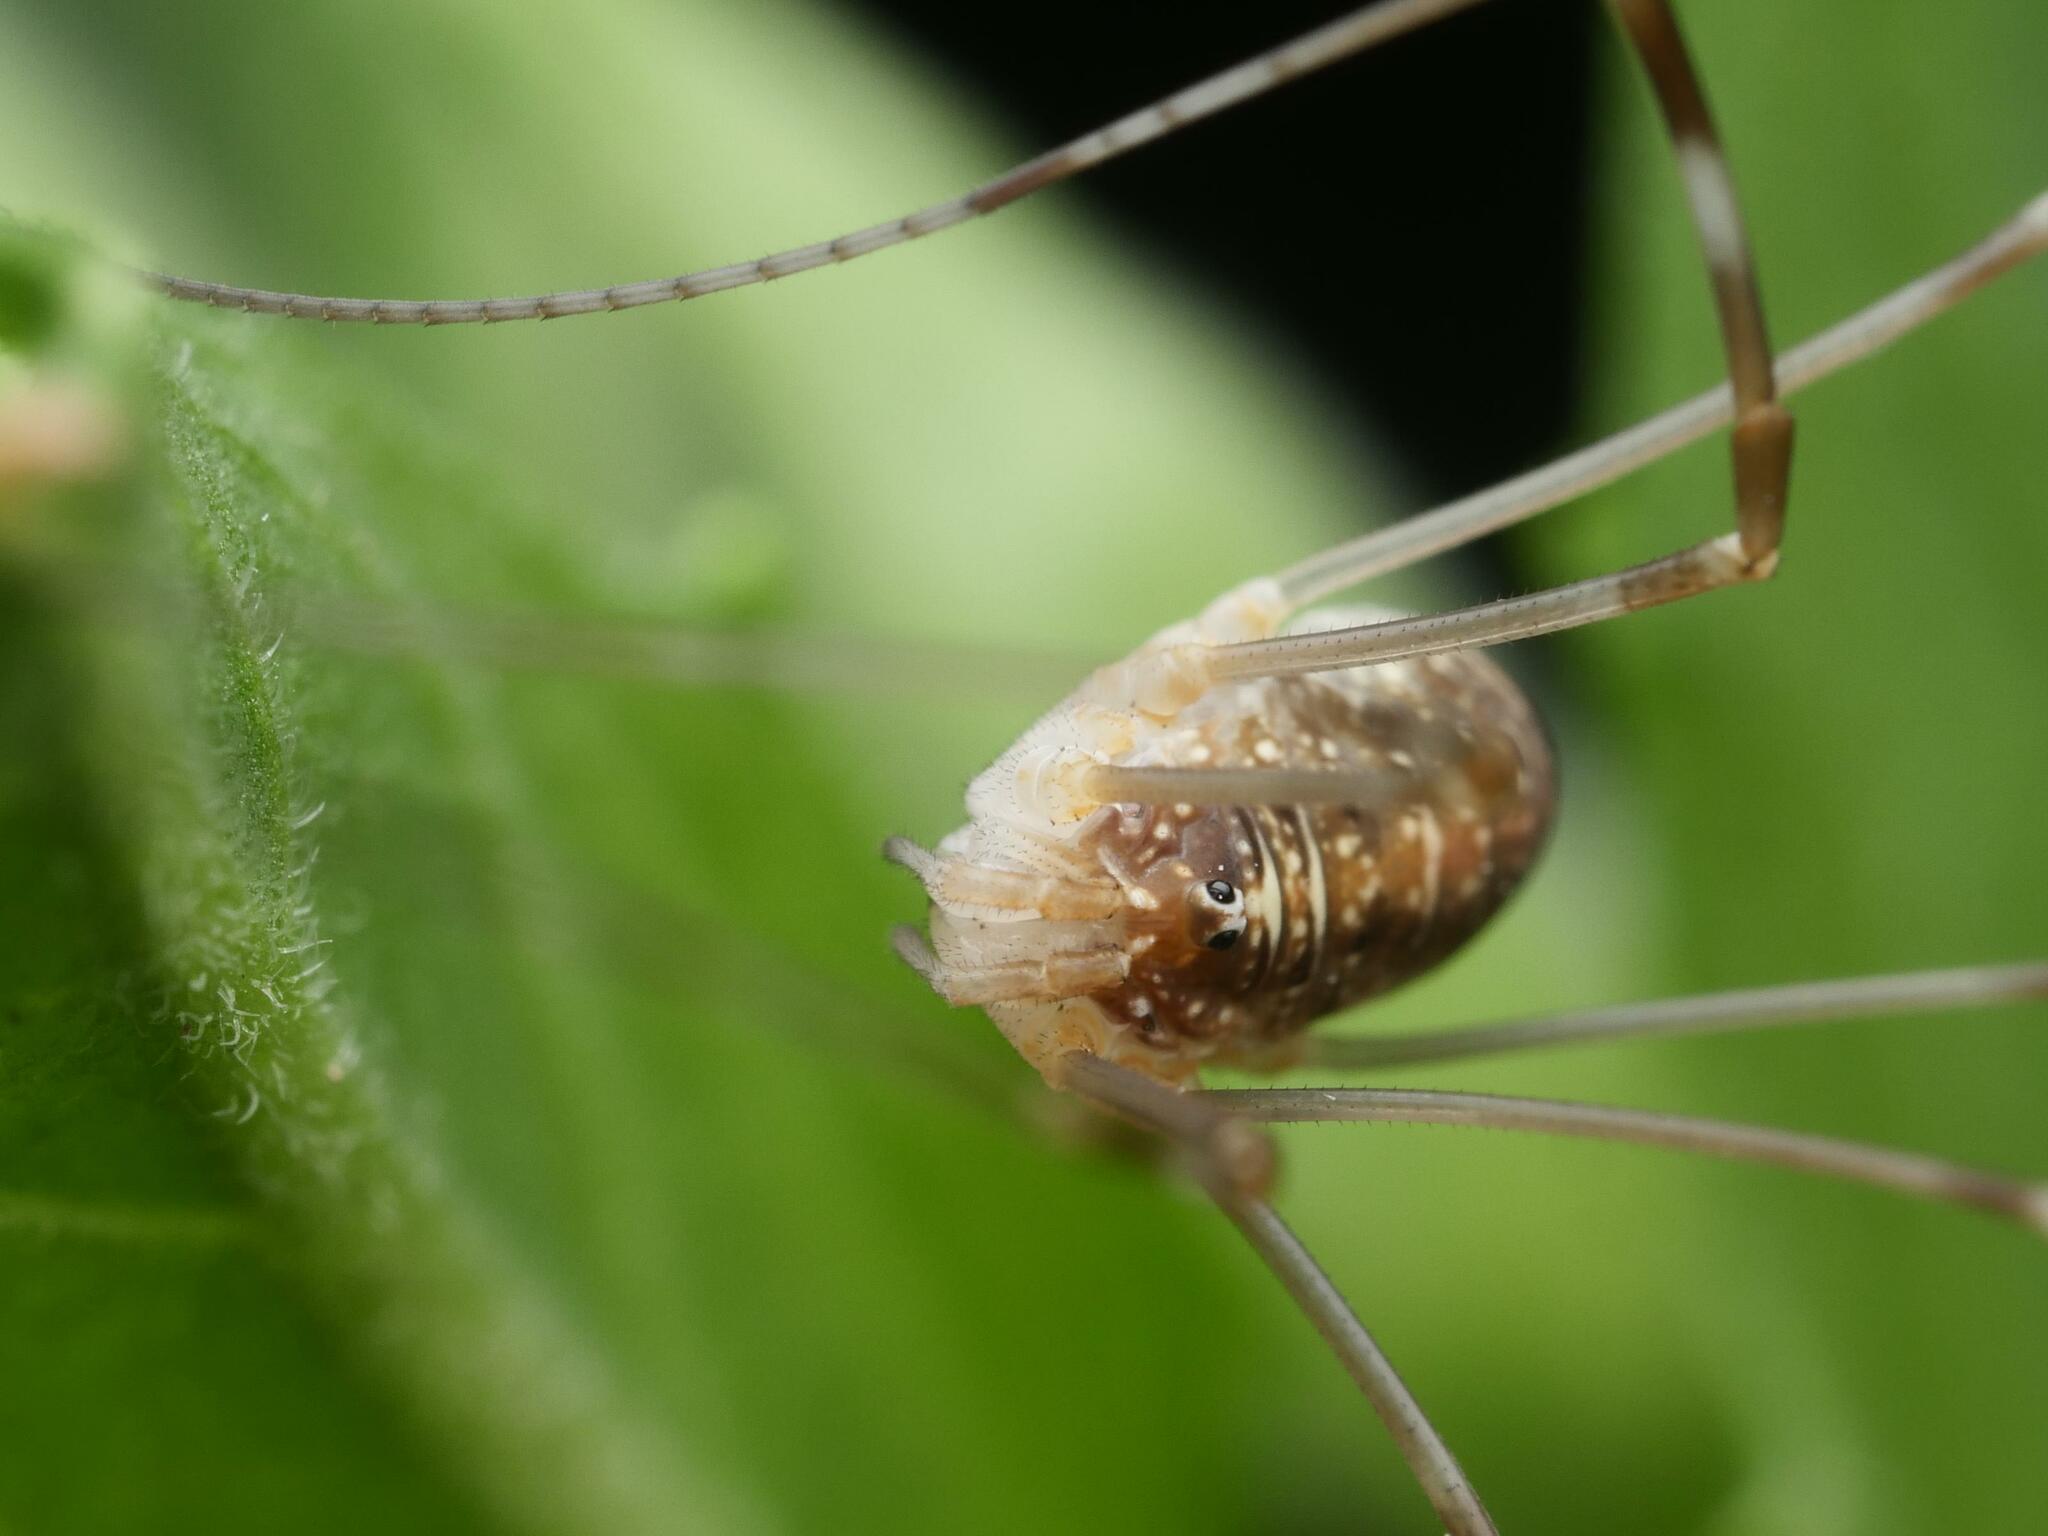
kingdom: Animalia
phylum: Arthropoda
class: Arachnida
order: Opiliones
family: Phalangiidae
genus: Opilio
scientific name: Opilio canestrinii
